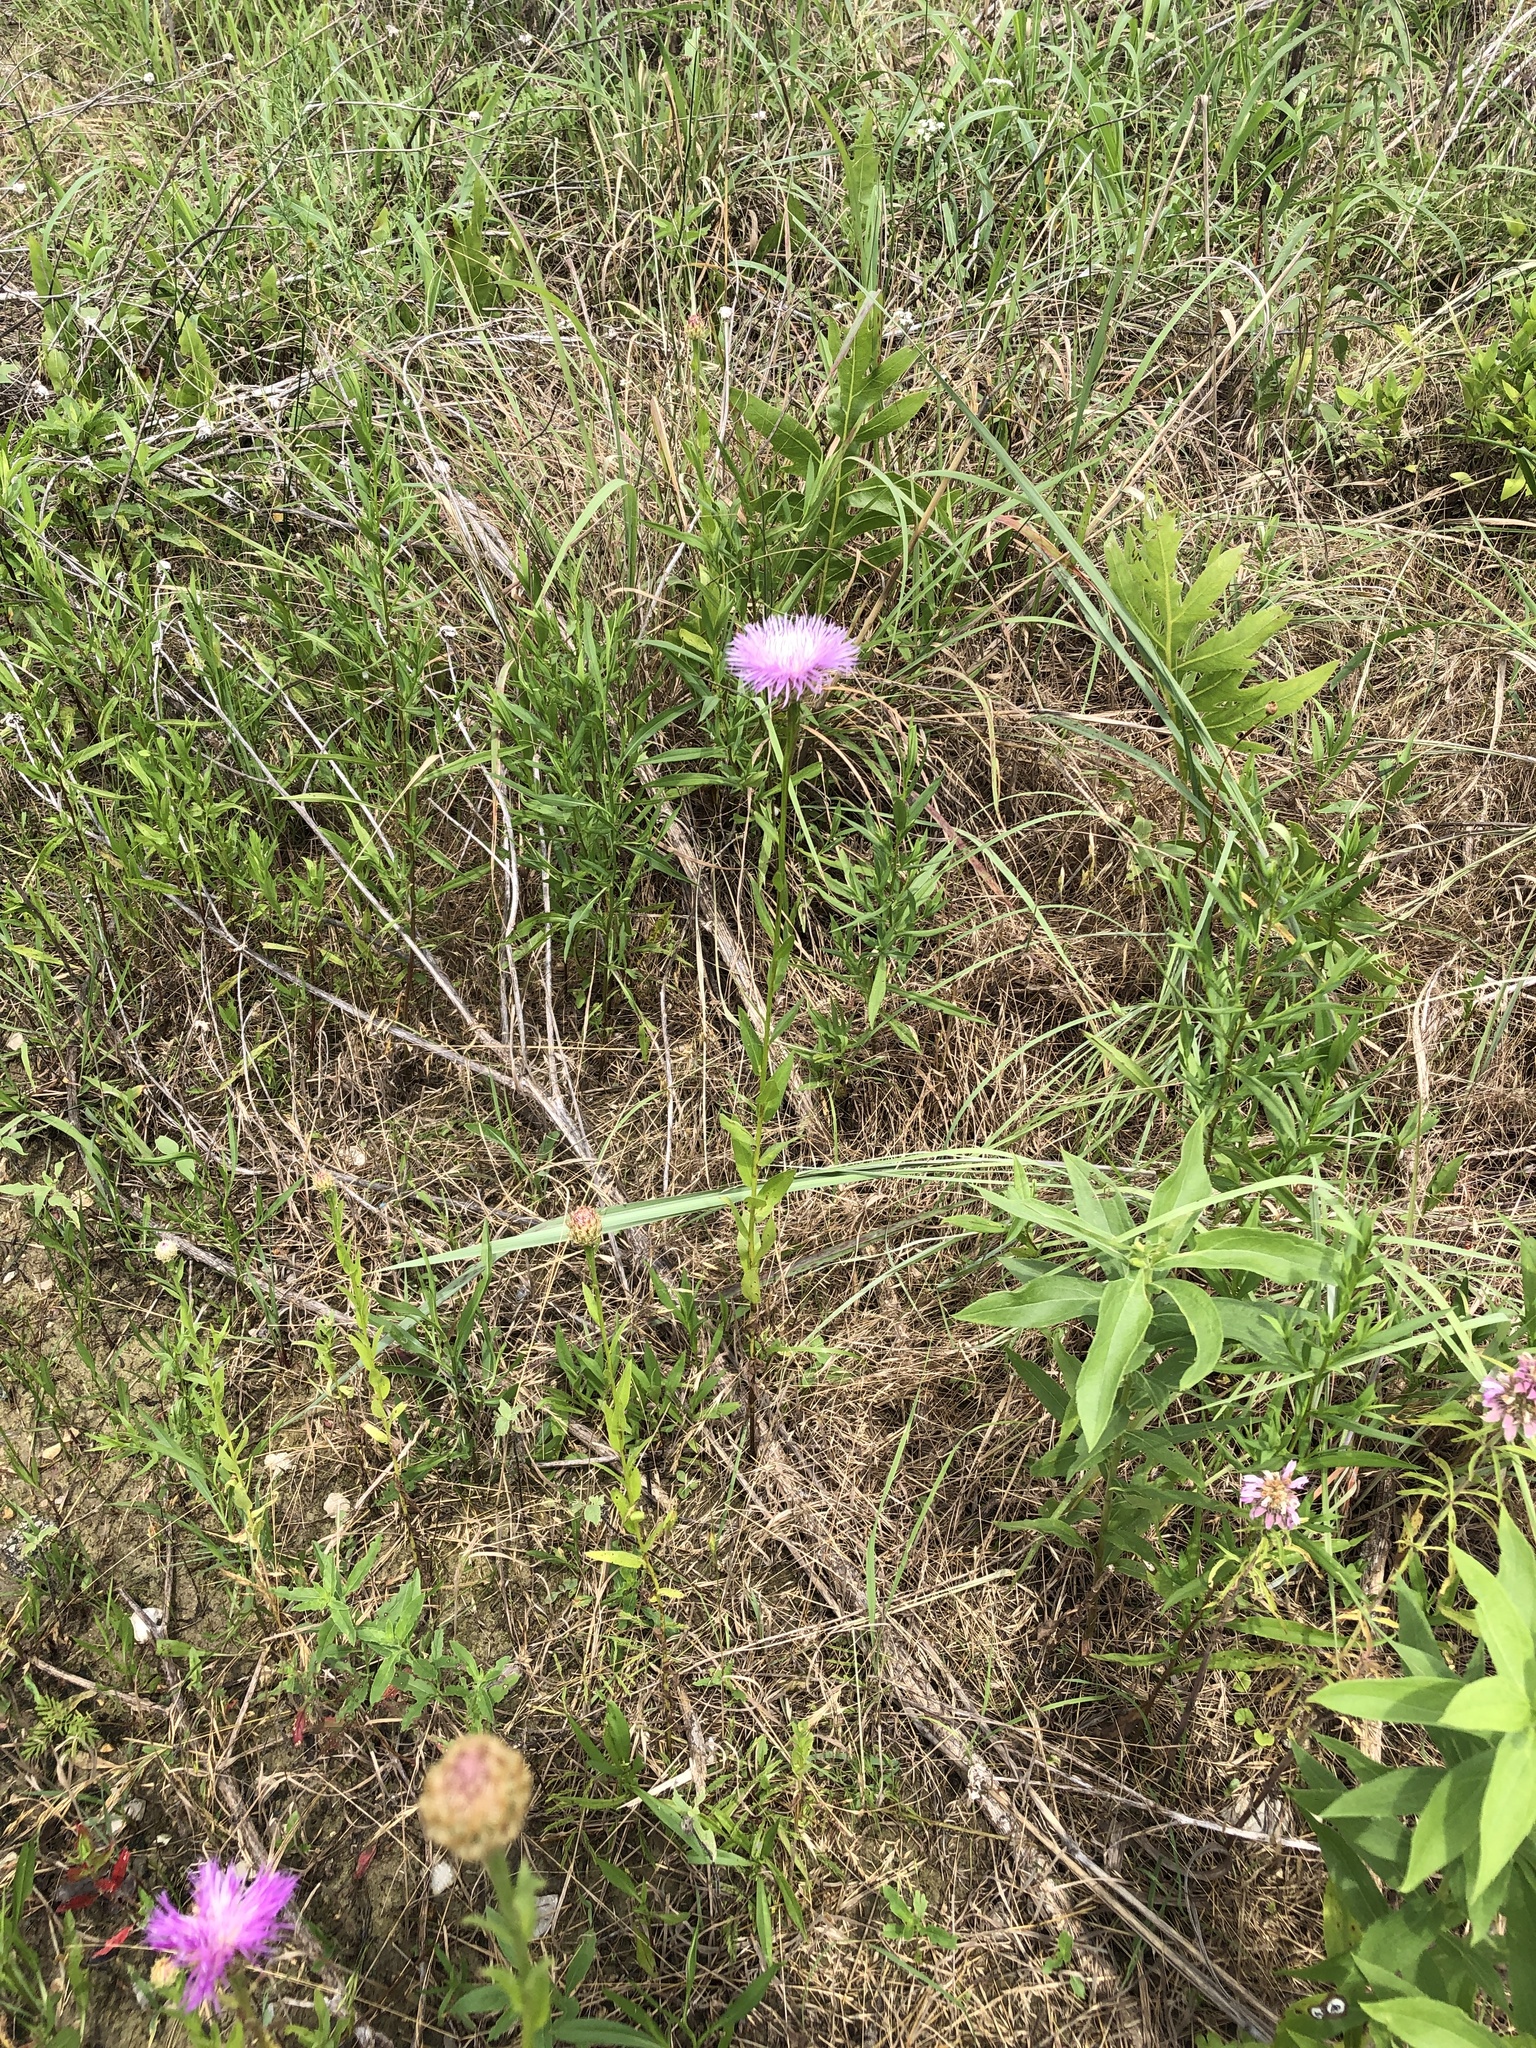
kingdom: Plantae
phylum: Tracheophyta
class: Magnoliopsida
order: Asterales
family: Asteraceae
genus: Plectocephalus
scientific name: Plectocephalus americanus
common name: American basket-flower
